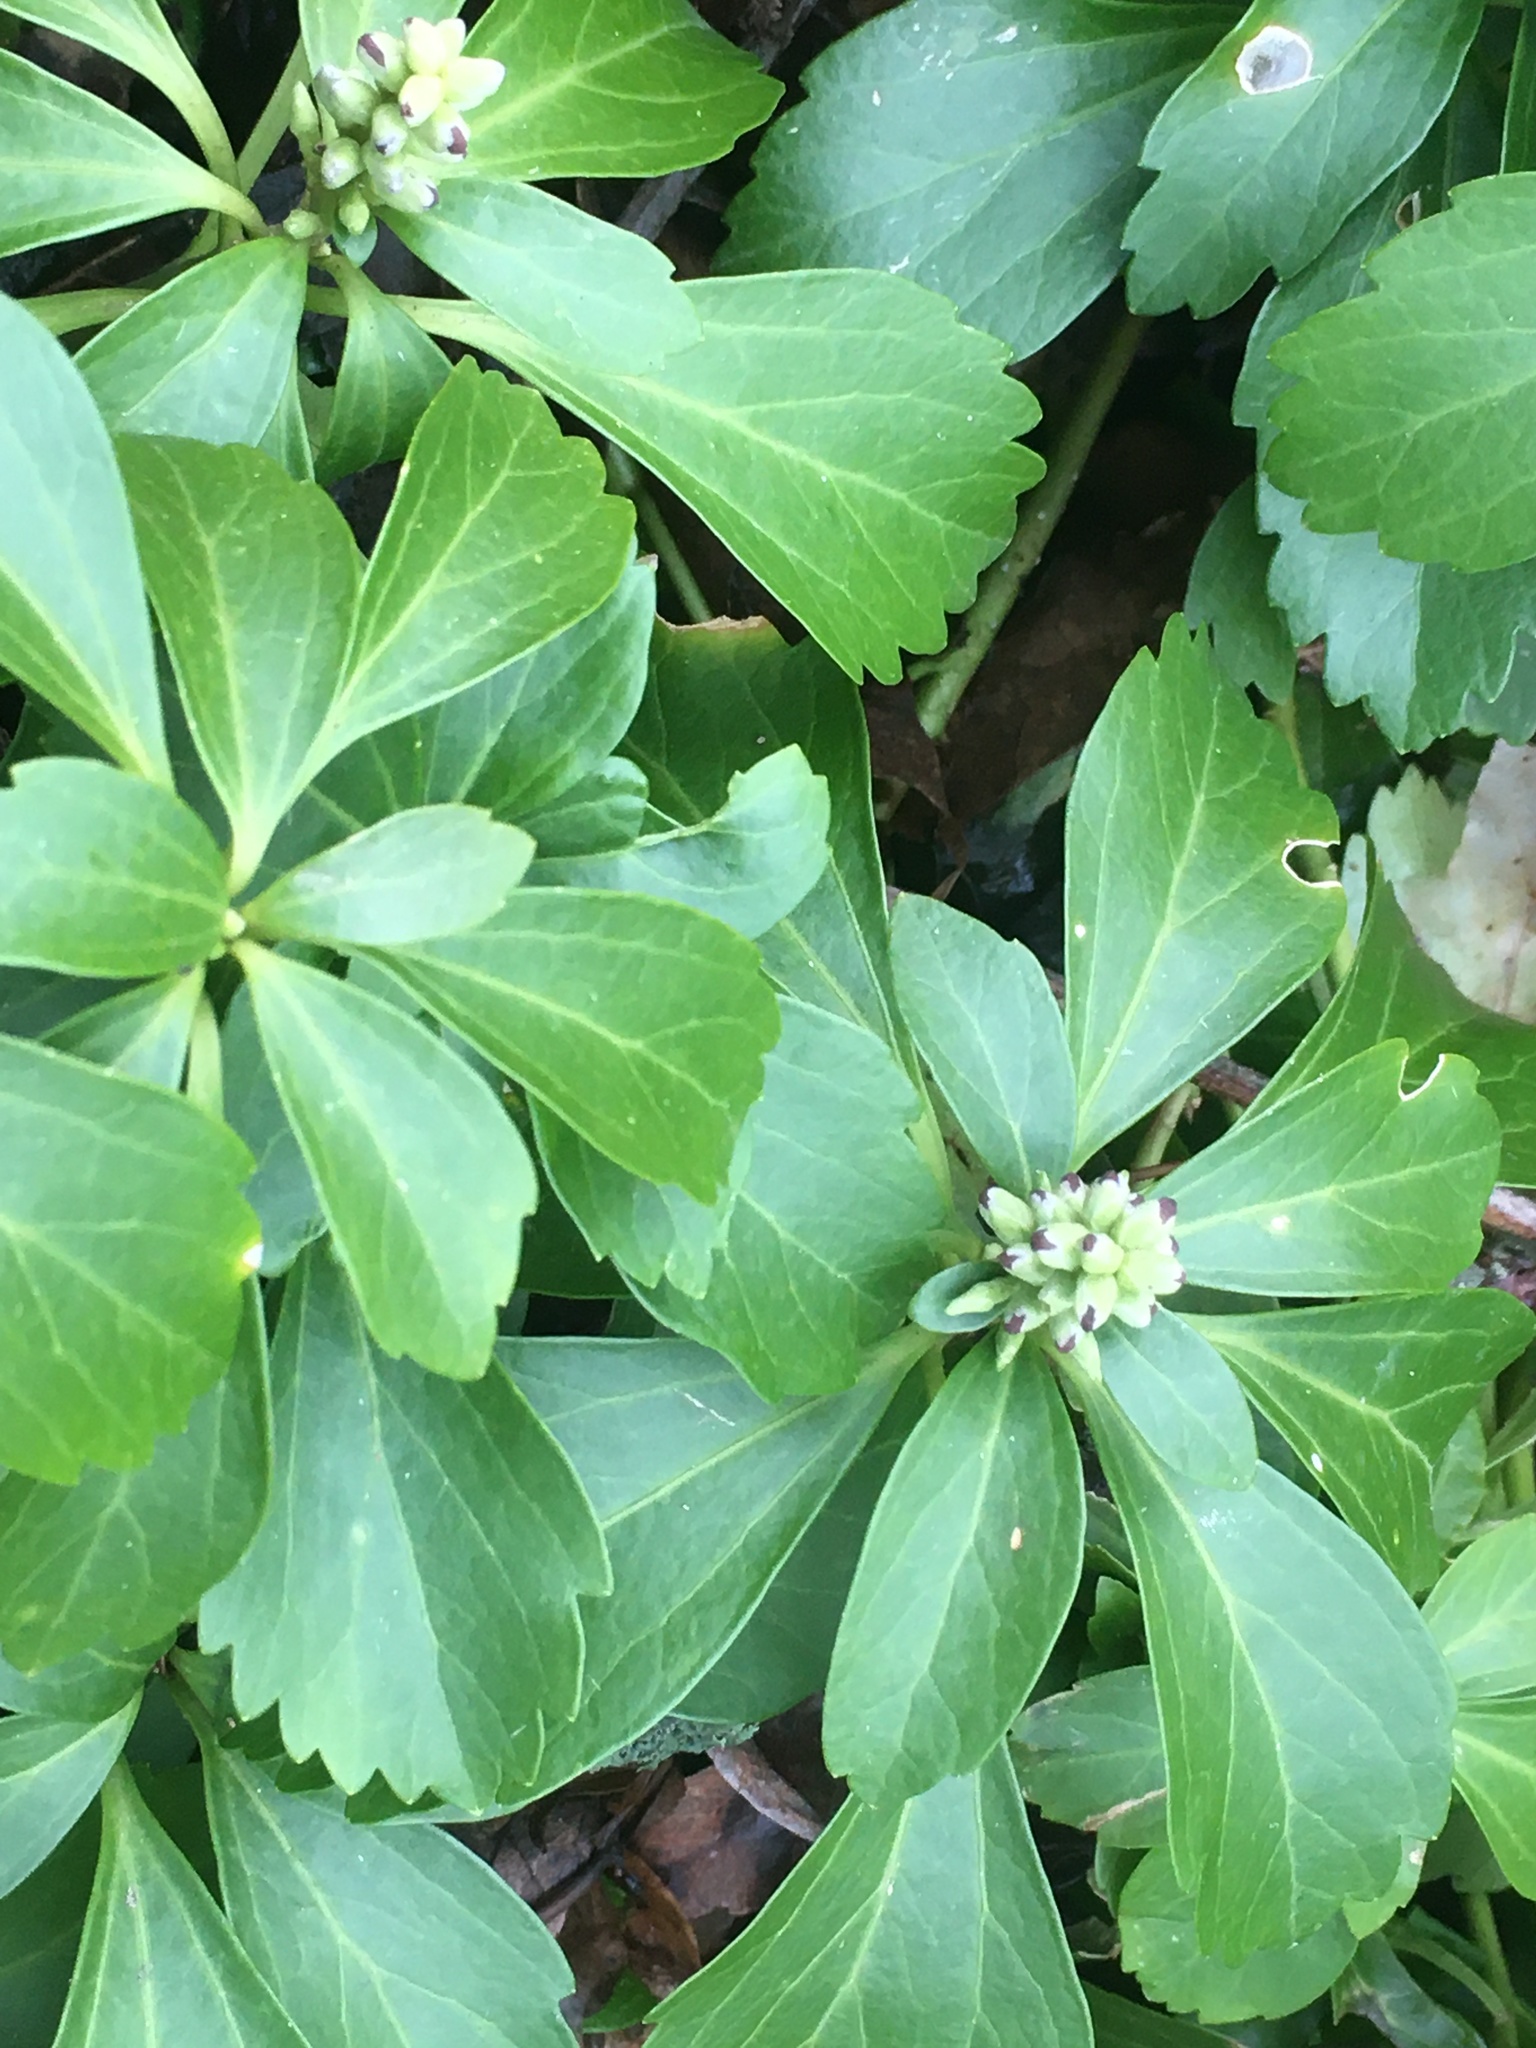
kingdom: Plantae
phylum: Tracheophyta
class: Magnoliopsida
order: Buxales
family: Buxaceae
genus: Pachysandra
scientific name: Pachysandra terminalis
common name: Japanese pachysandra
